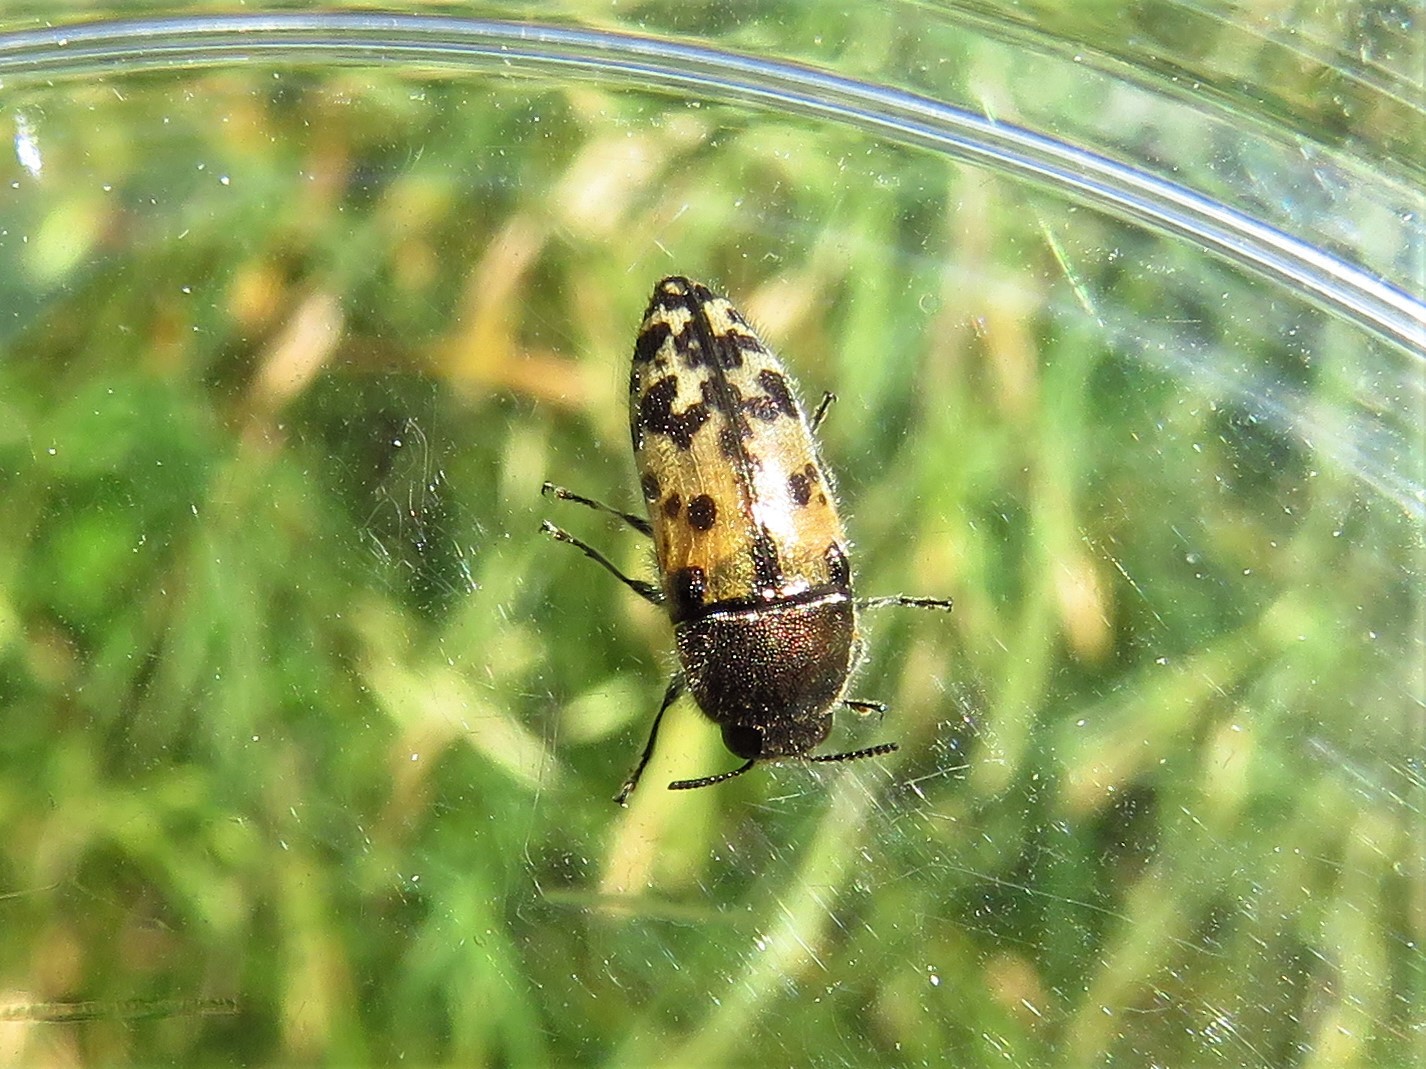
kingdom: Animalia
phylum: Arthropoda
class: Insecta
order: Coleoptera
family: Buprestidae
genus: Acmaeodera
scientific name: Acmaeodera mixta
